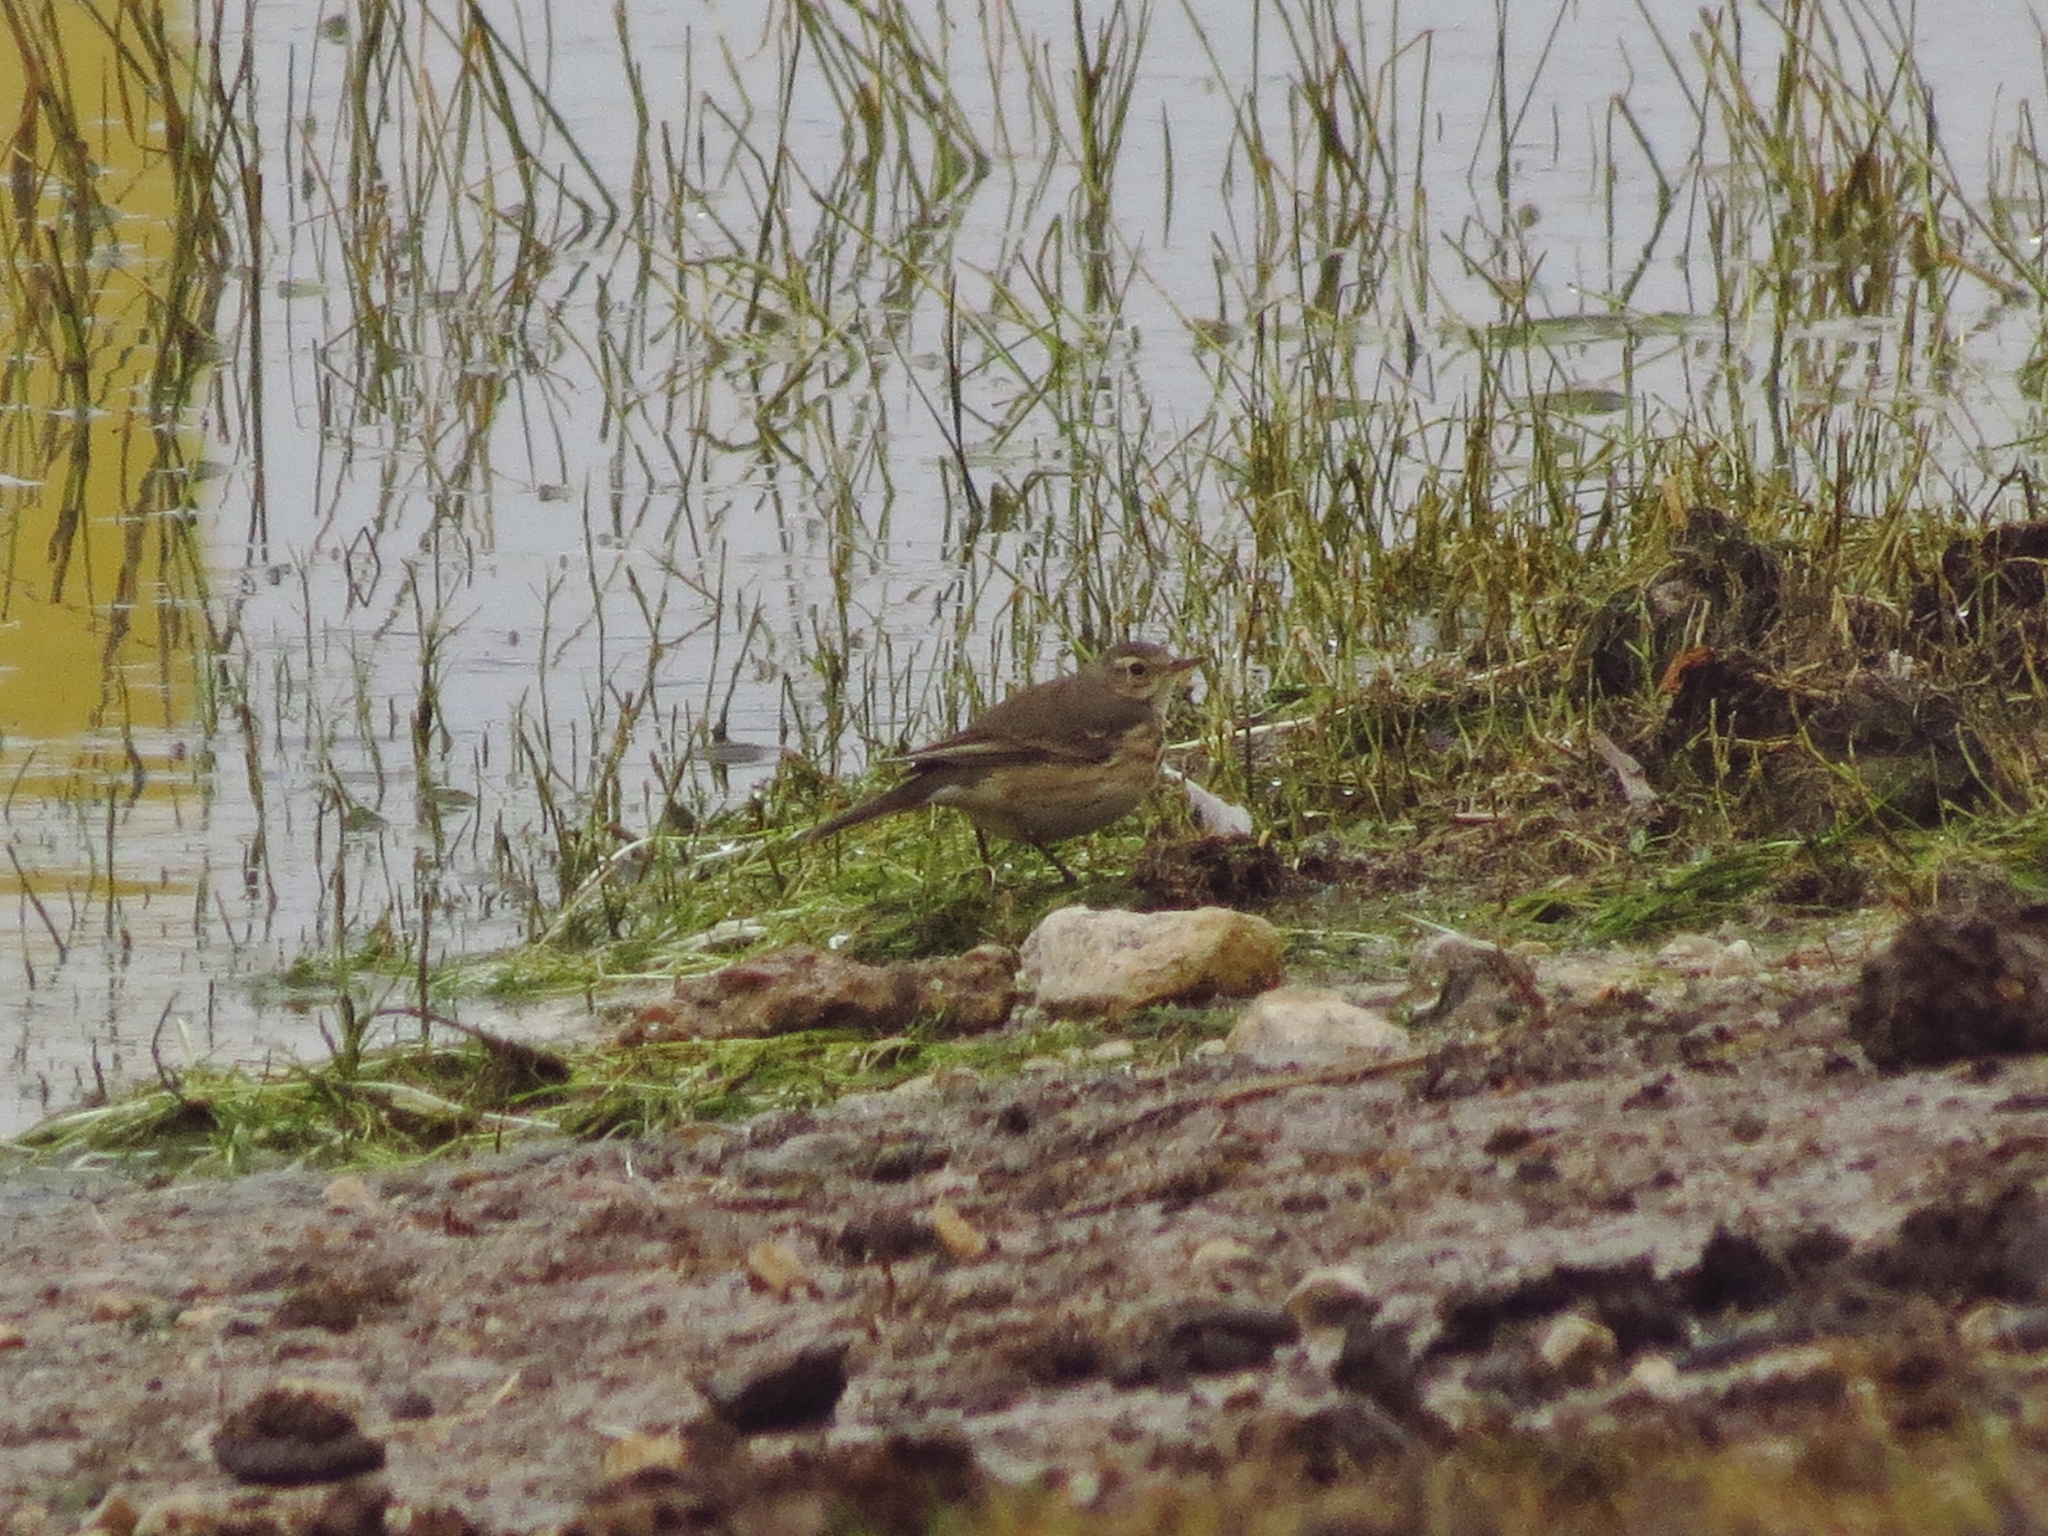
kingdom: Animalia
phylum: Chordata
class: Aves
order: Passeriformes
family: Motacillidae
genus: Anthus
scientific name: Anthus rubescens
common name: Buff-bellied pipit
